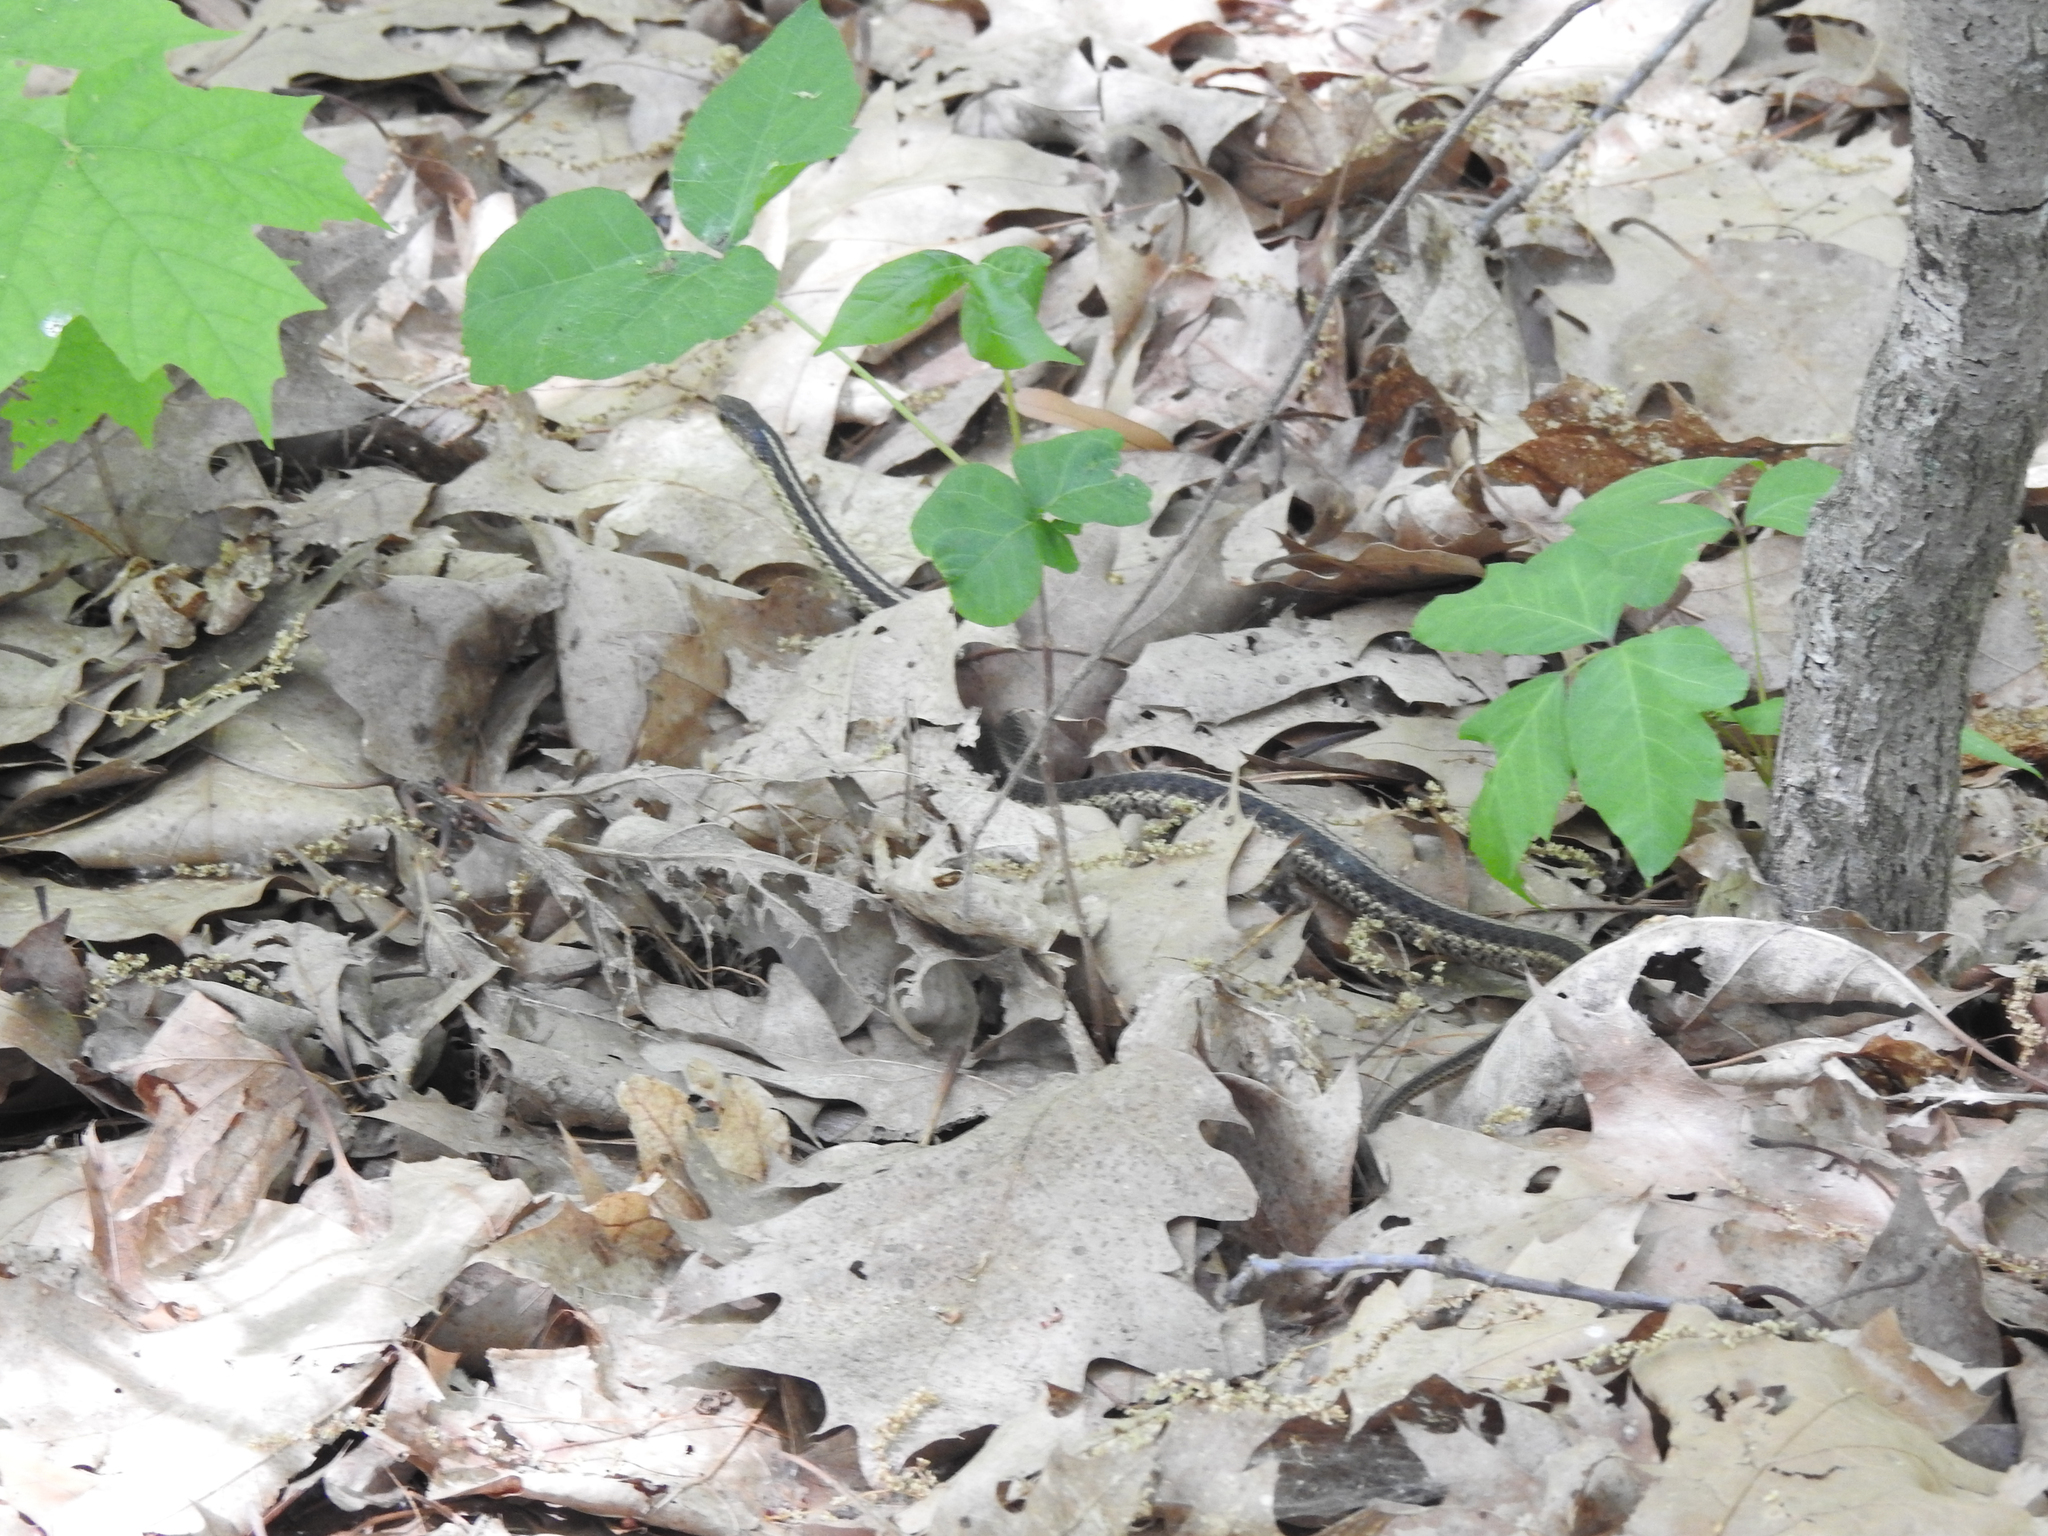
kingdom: Animalia
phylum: Chordata
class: Squamata
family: Colubridae
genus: Thamnophis
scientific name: Thamnophis sirtalis
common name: Common garter snake
